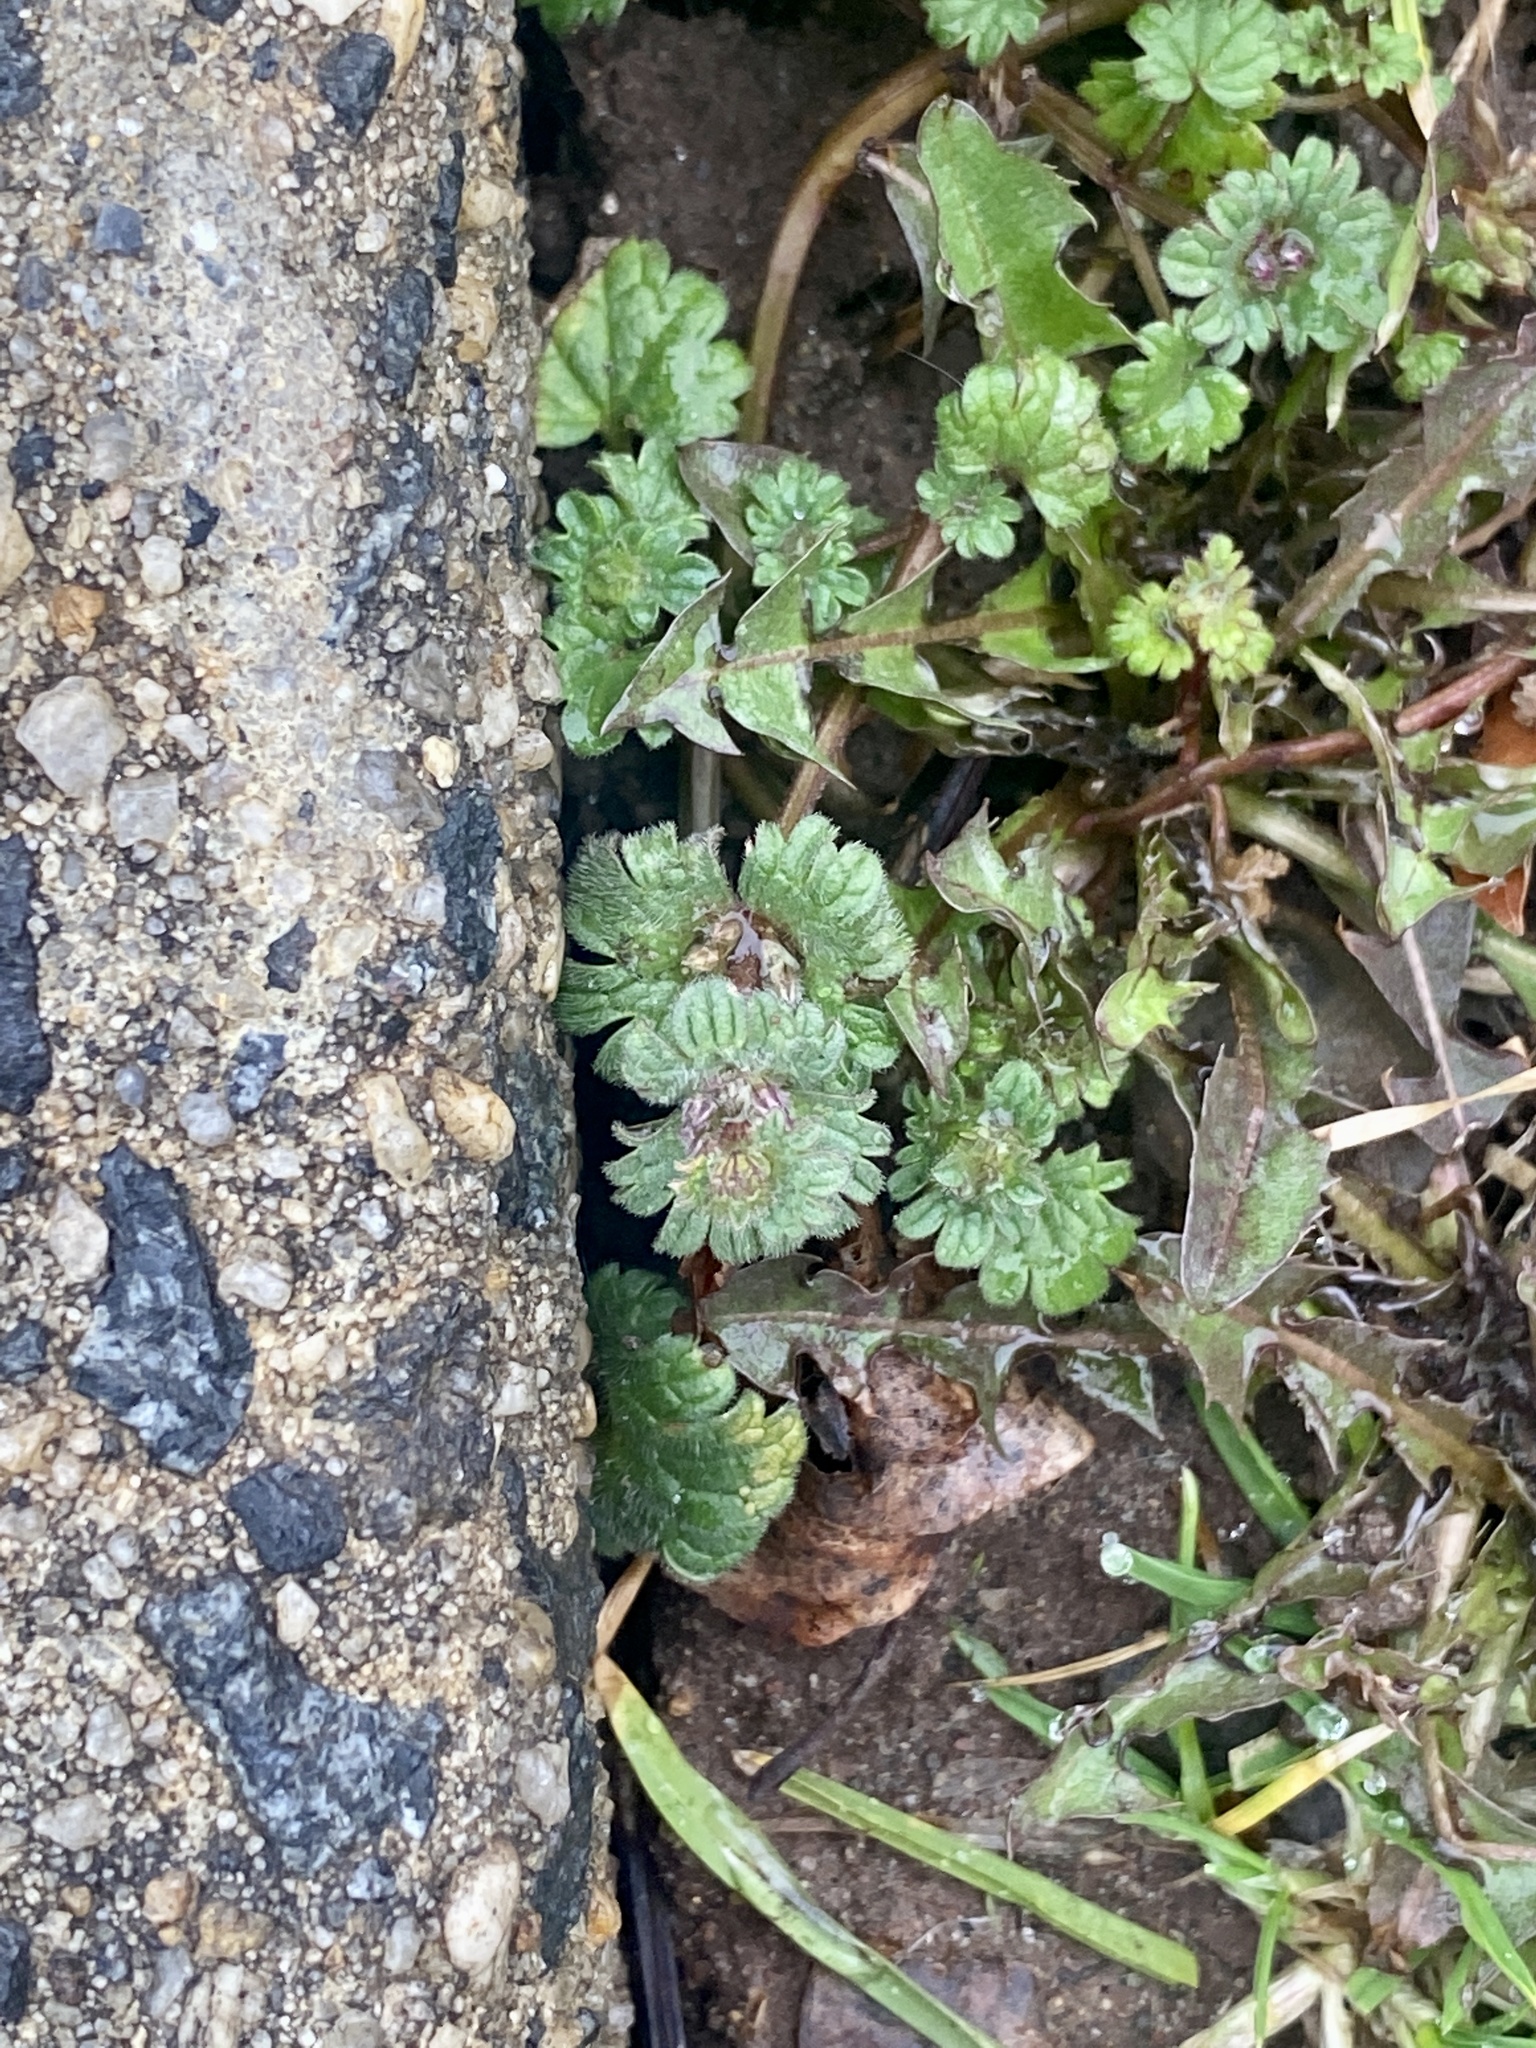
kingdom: Plantae
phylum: Tracheophyta
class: Magnoliopsida
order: Lamiales
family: Lamiaceae
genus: Lamium
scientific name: Lamium amplexicaule
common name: Henbit dead-nettle
